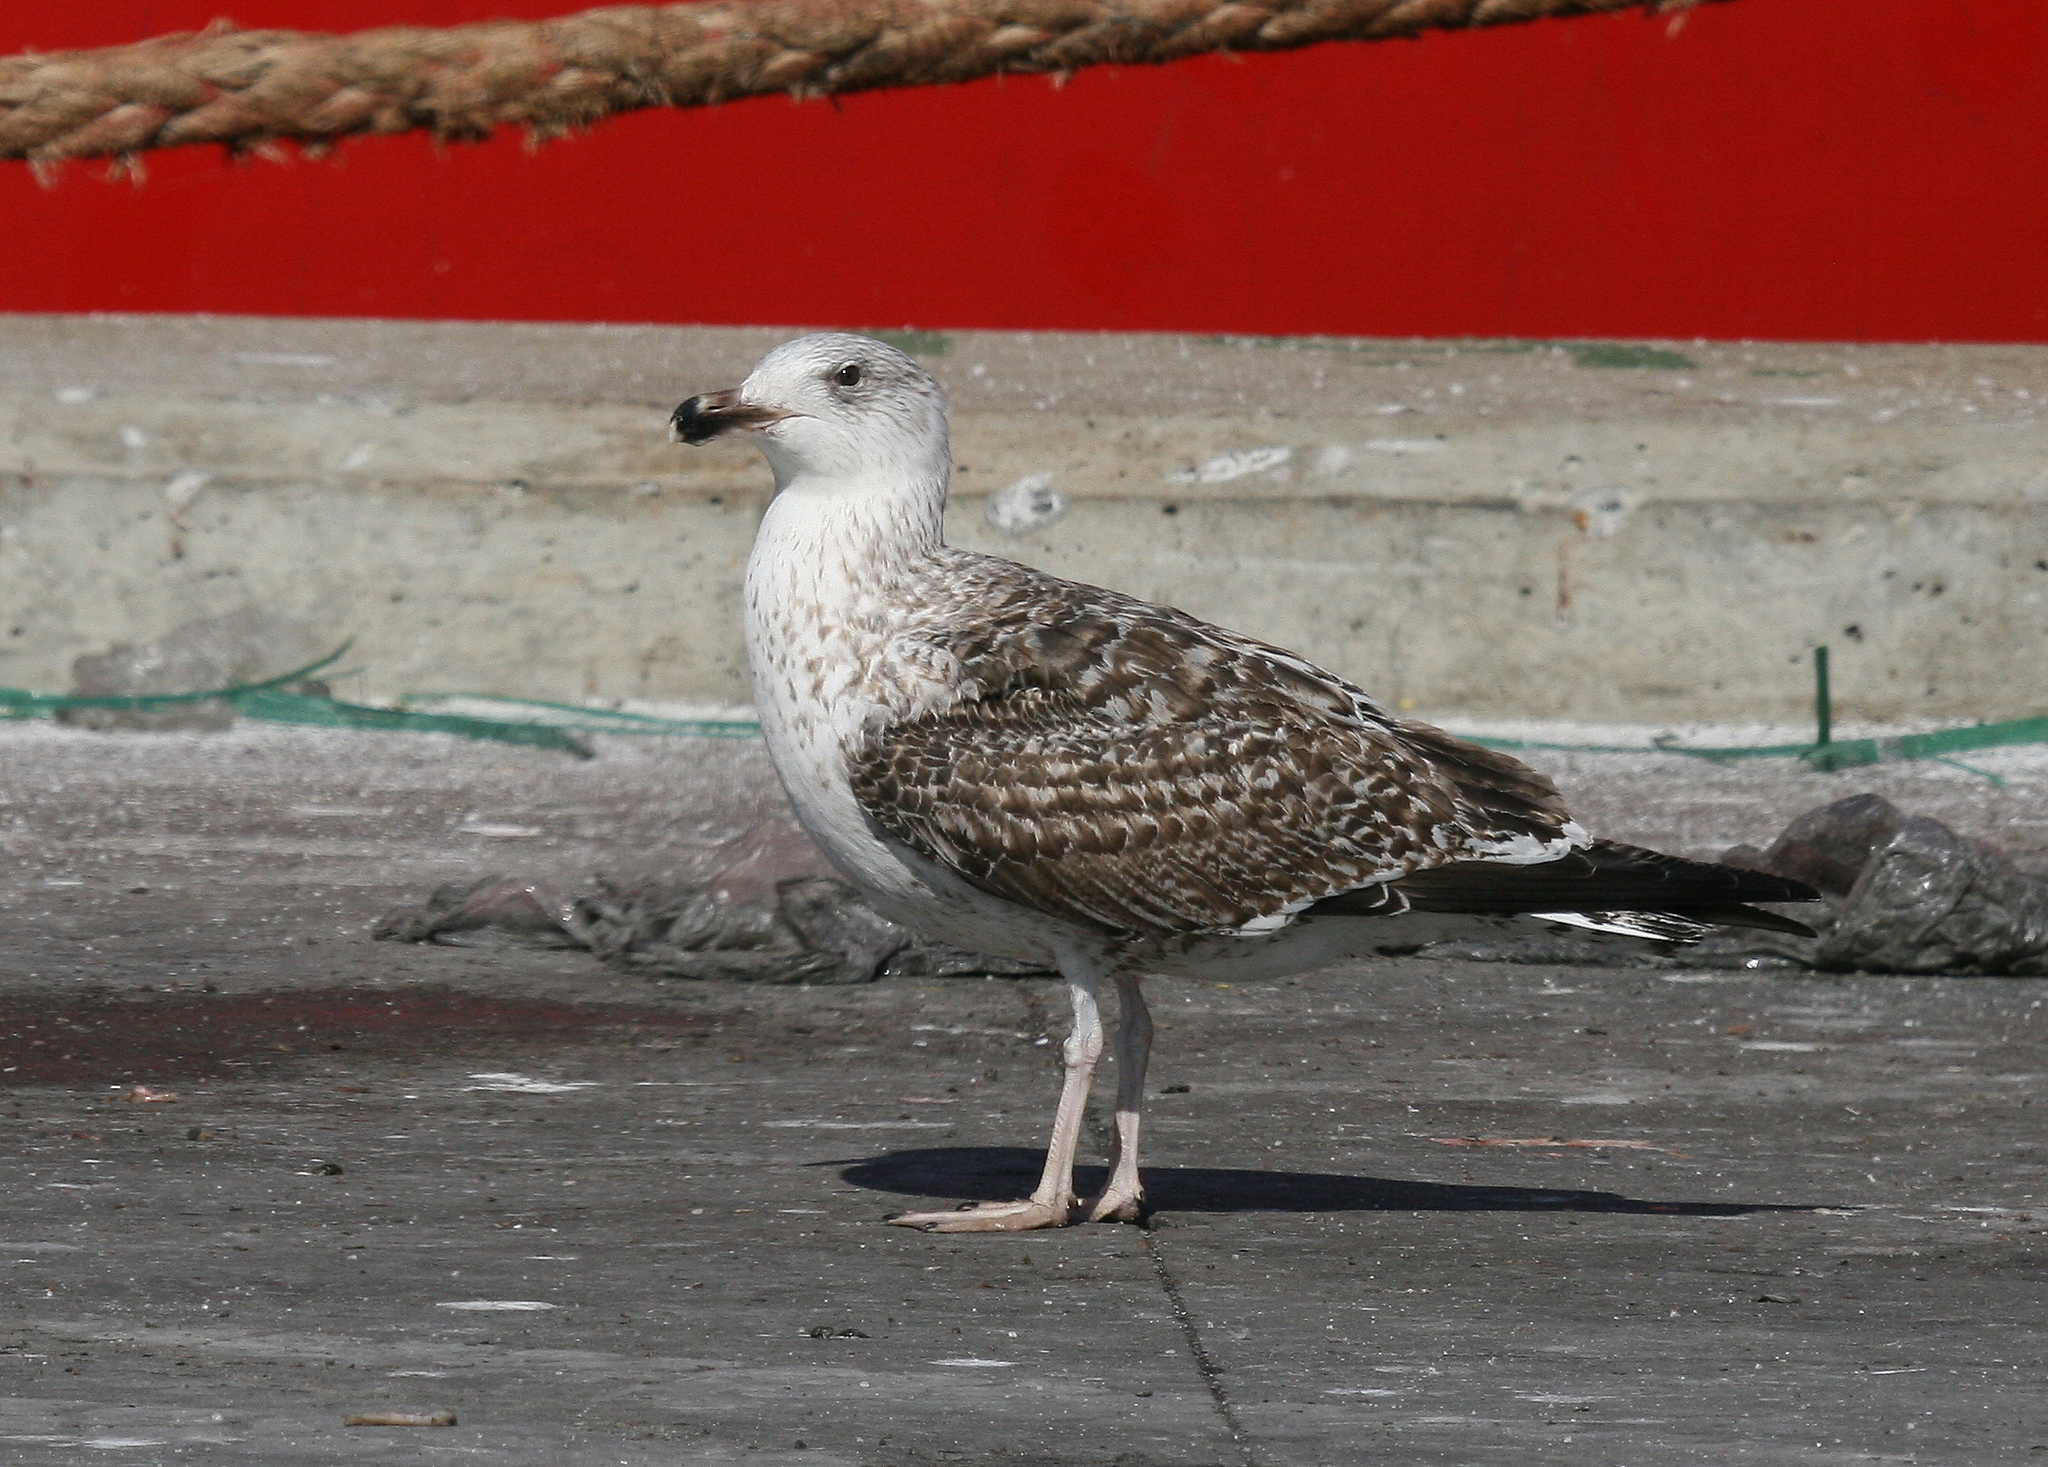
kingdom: Animalia
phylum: Chordata
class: Aves
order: Charadriiformes
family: Laridae
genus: Larus
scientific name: Larus marinus
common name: Great black-backed gull
